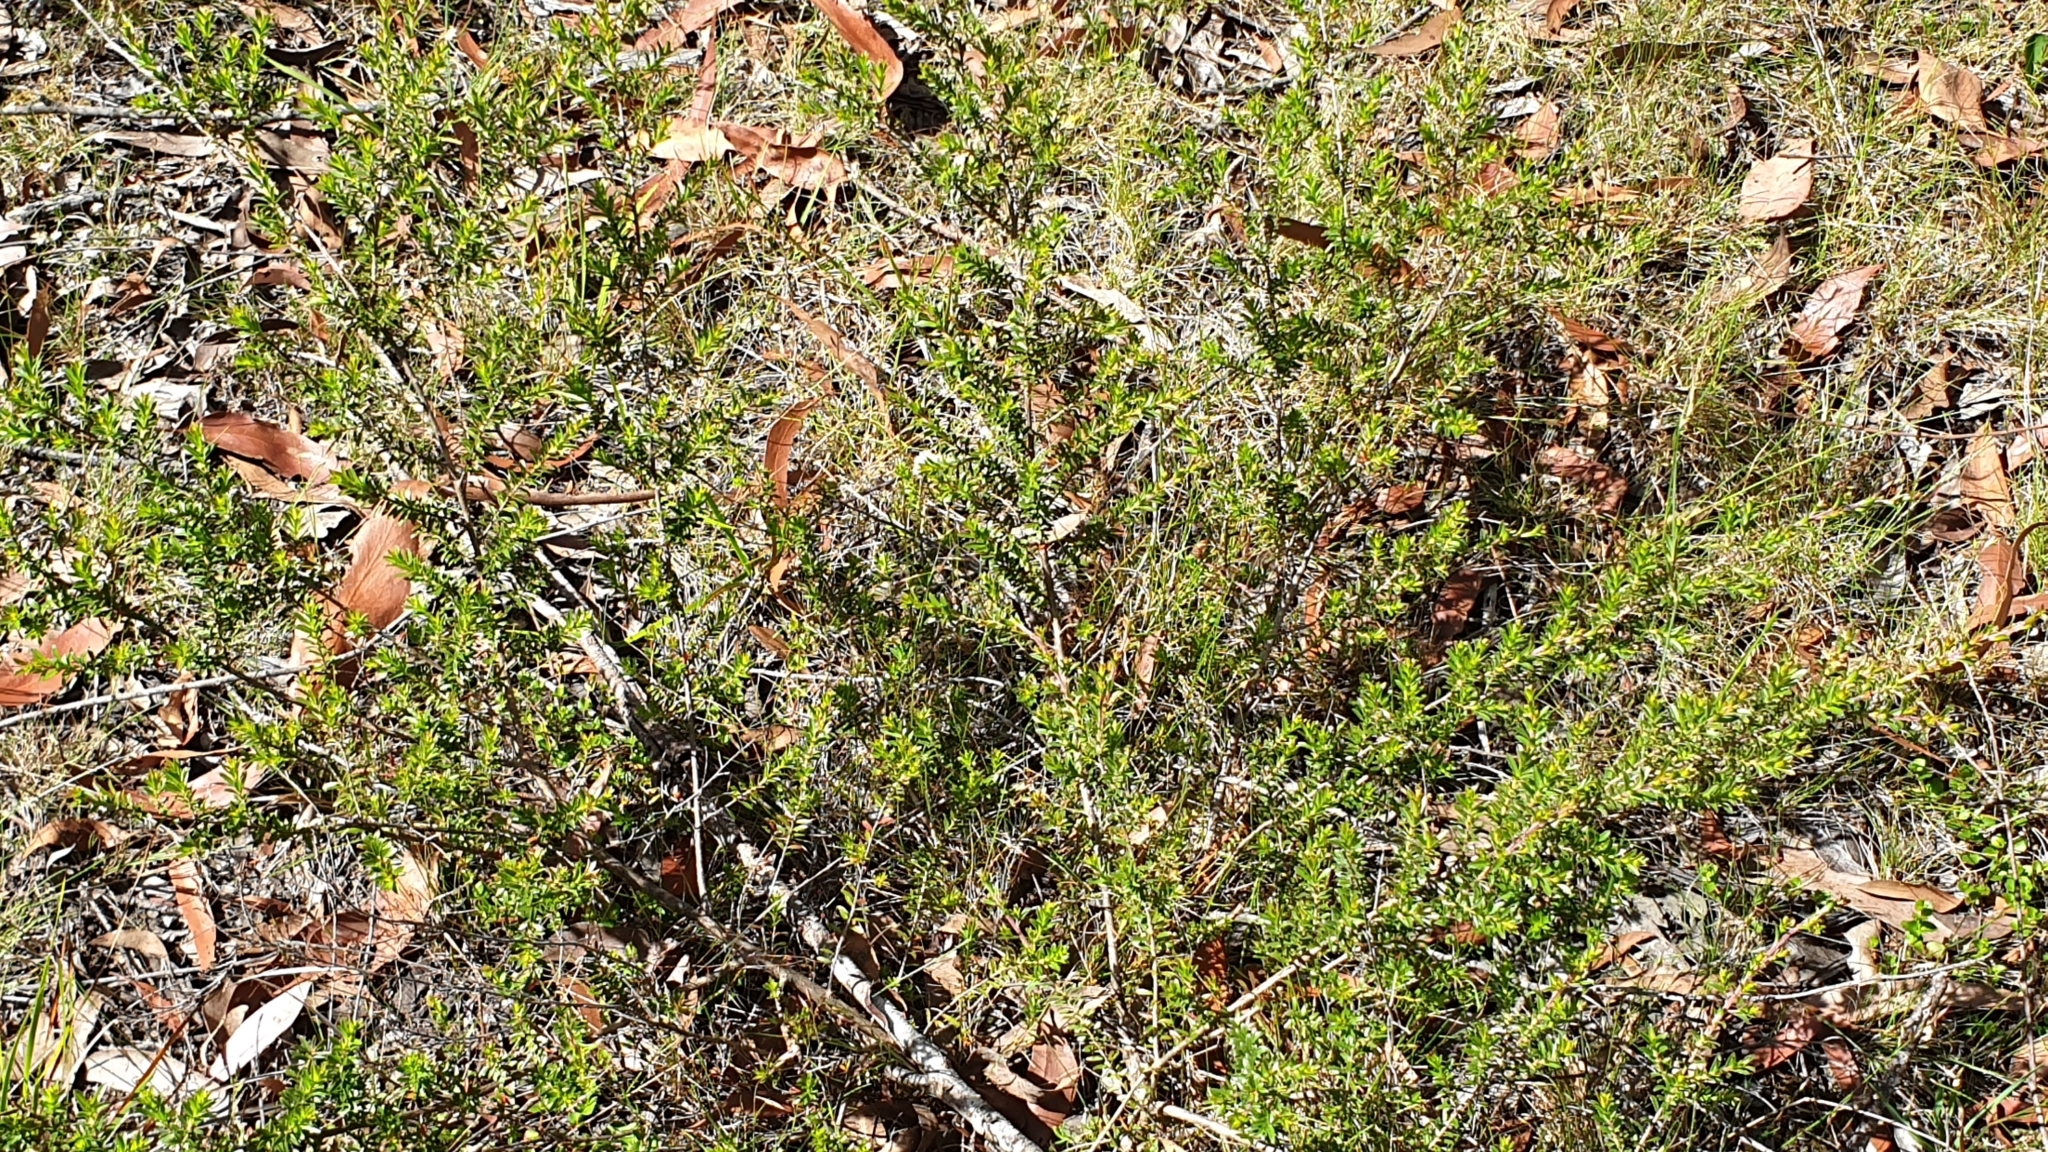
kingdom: Plantae
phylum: Tracheophyta
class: Magnoliopsida
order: Myrtales
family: Myrtaceae
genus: Kunzea
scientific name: Kunzea bracteolata
